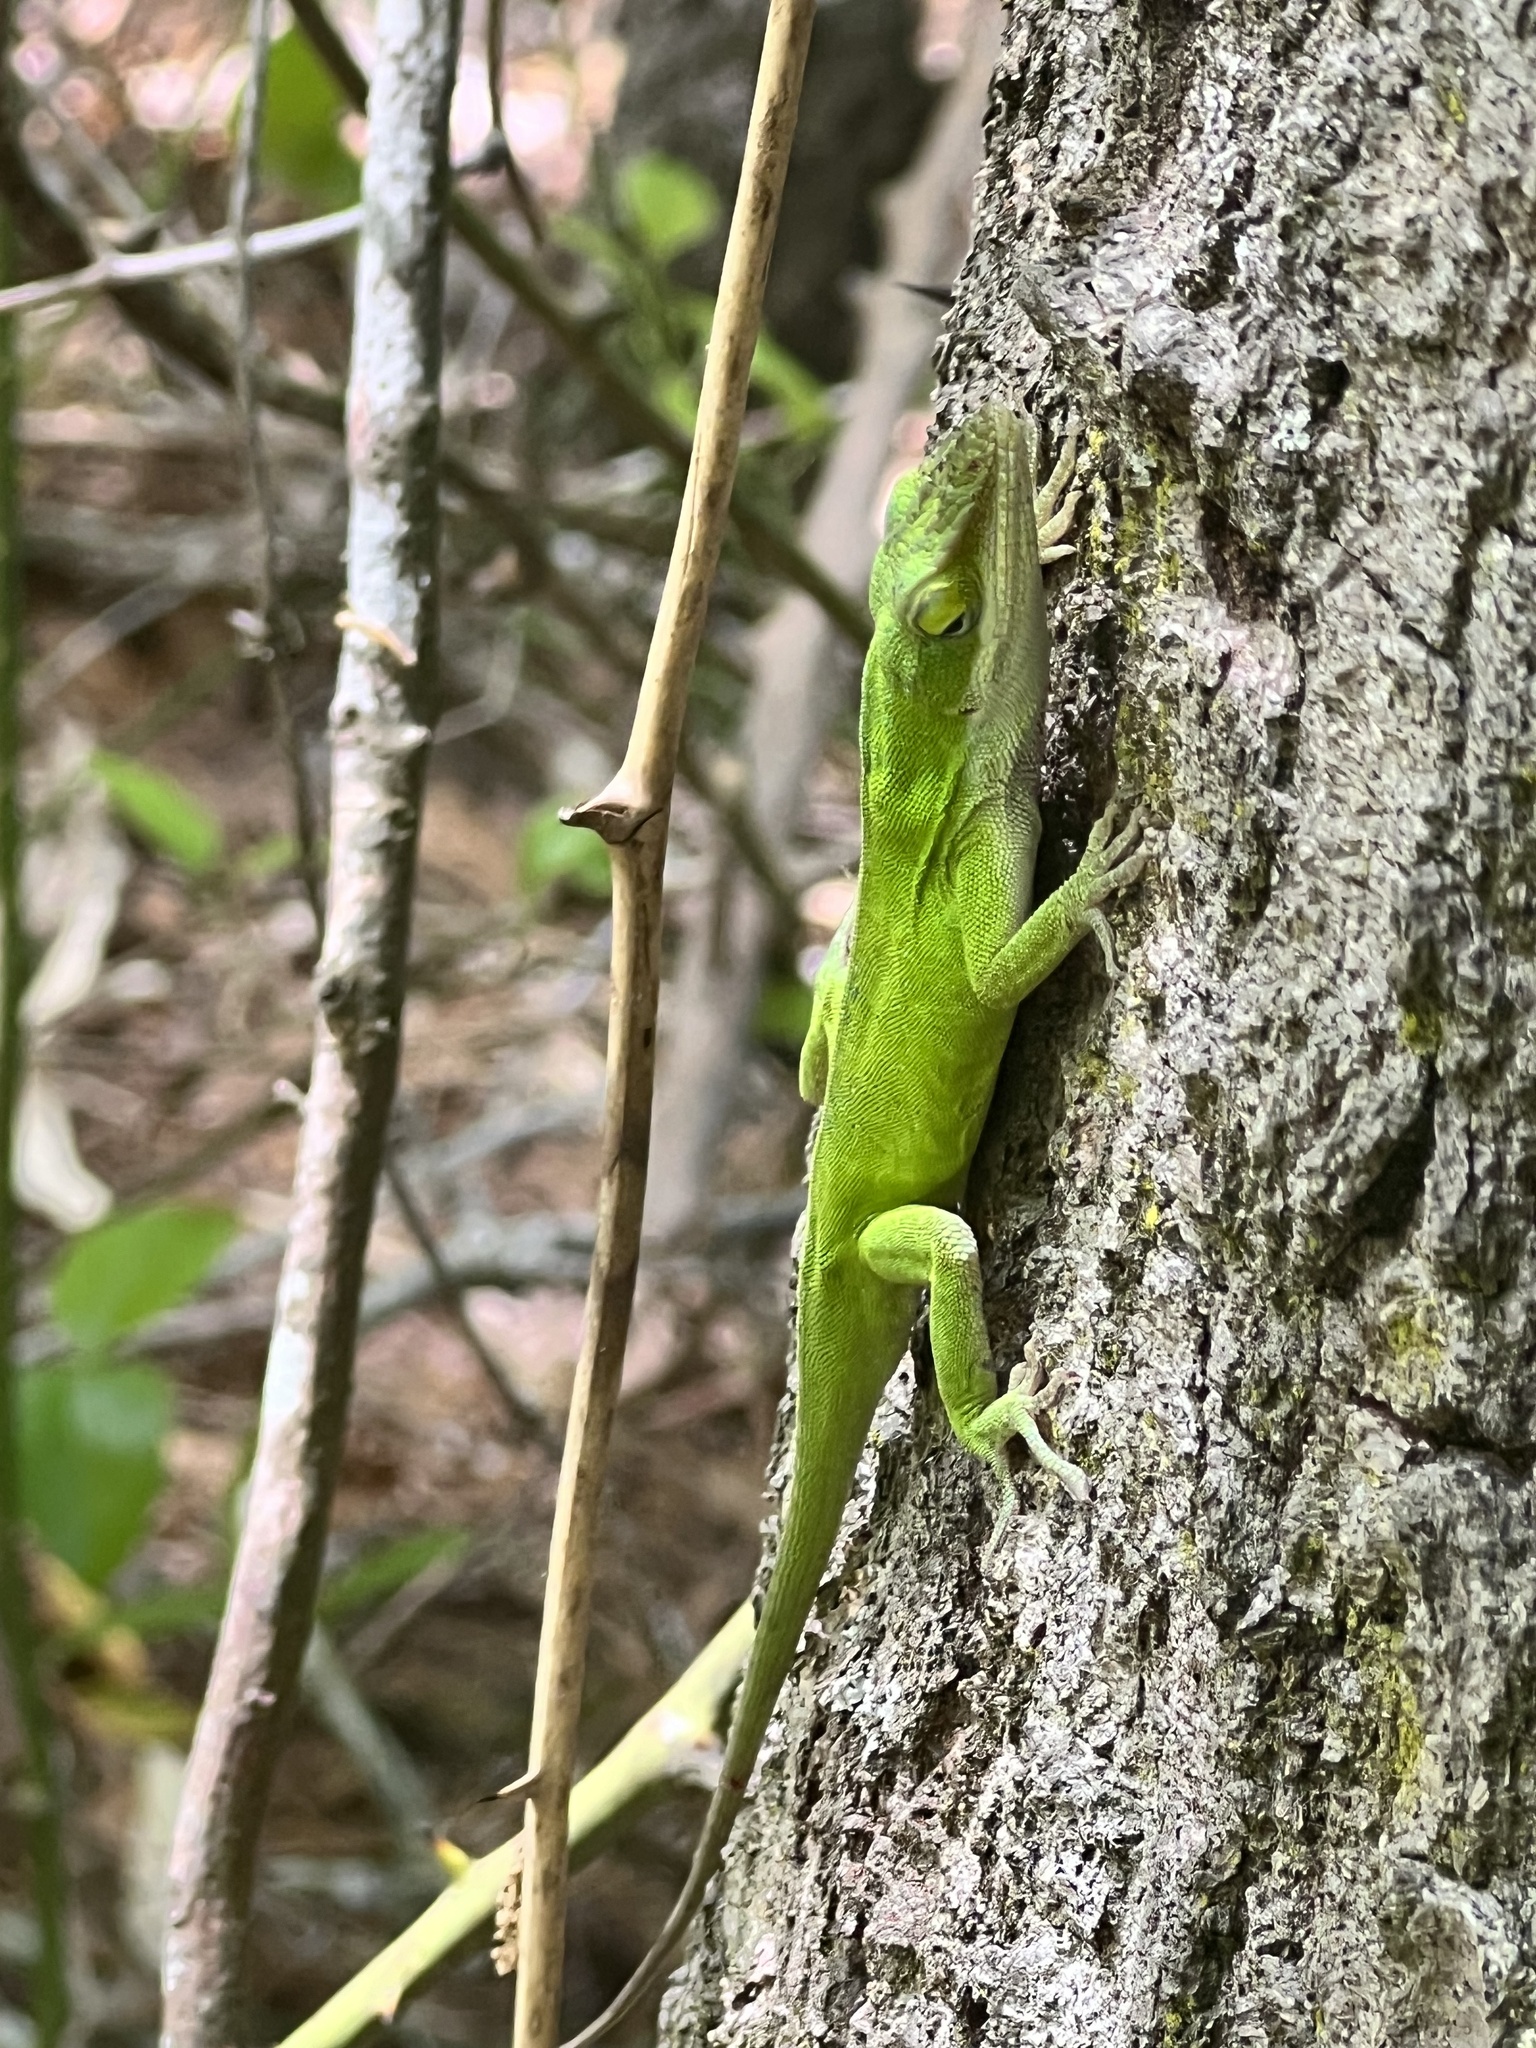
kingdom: Animalia
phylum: Chordata
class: Squamata
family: Dactyloidae
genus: Anolis
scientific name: Anolis carolinensis
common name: Green anole
